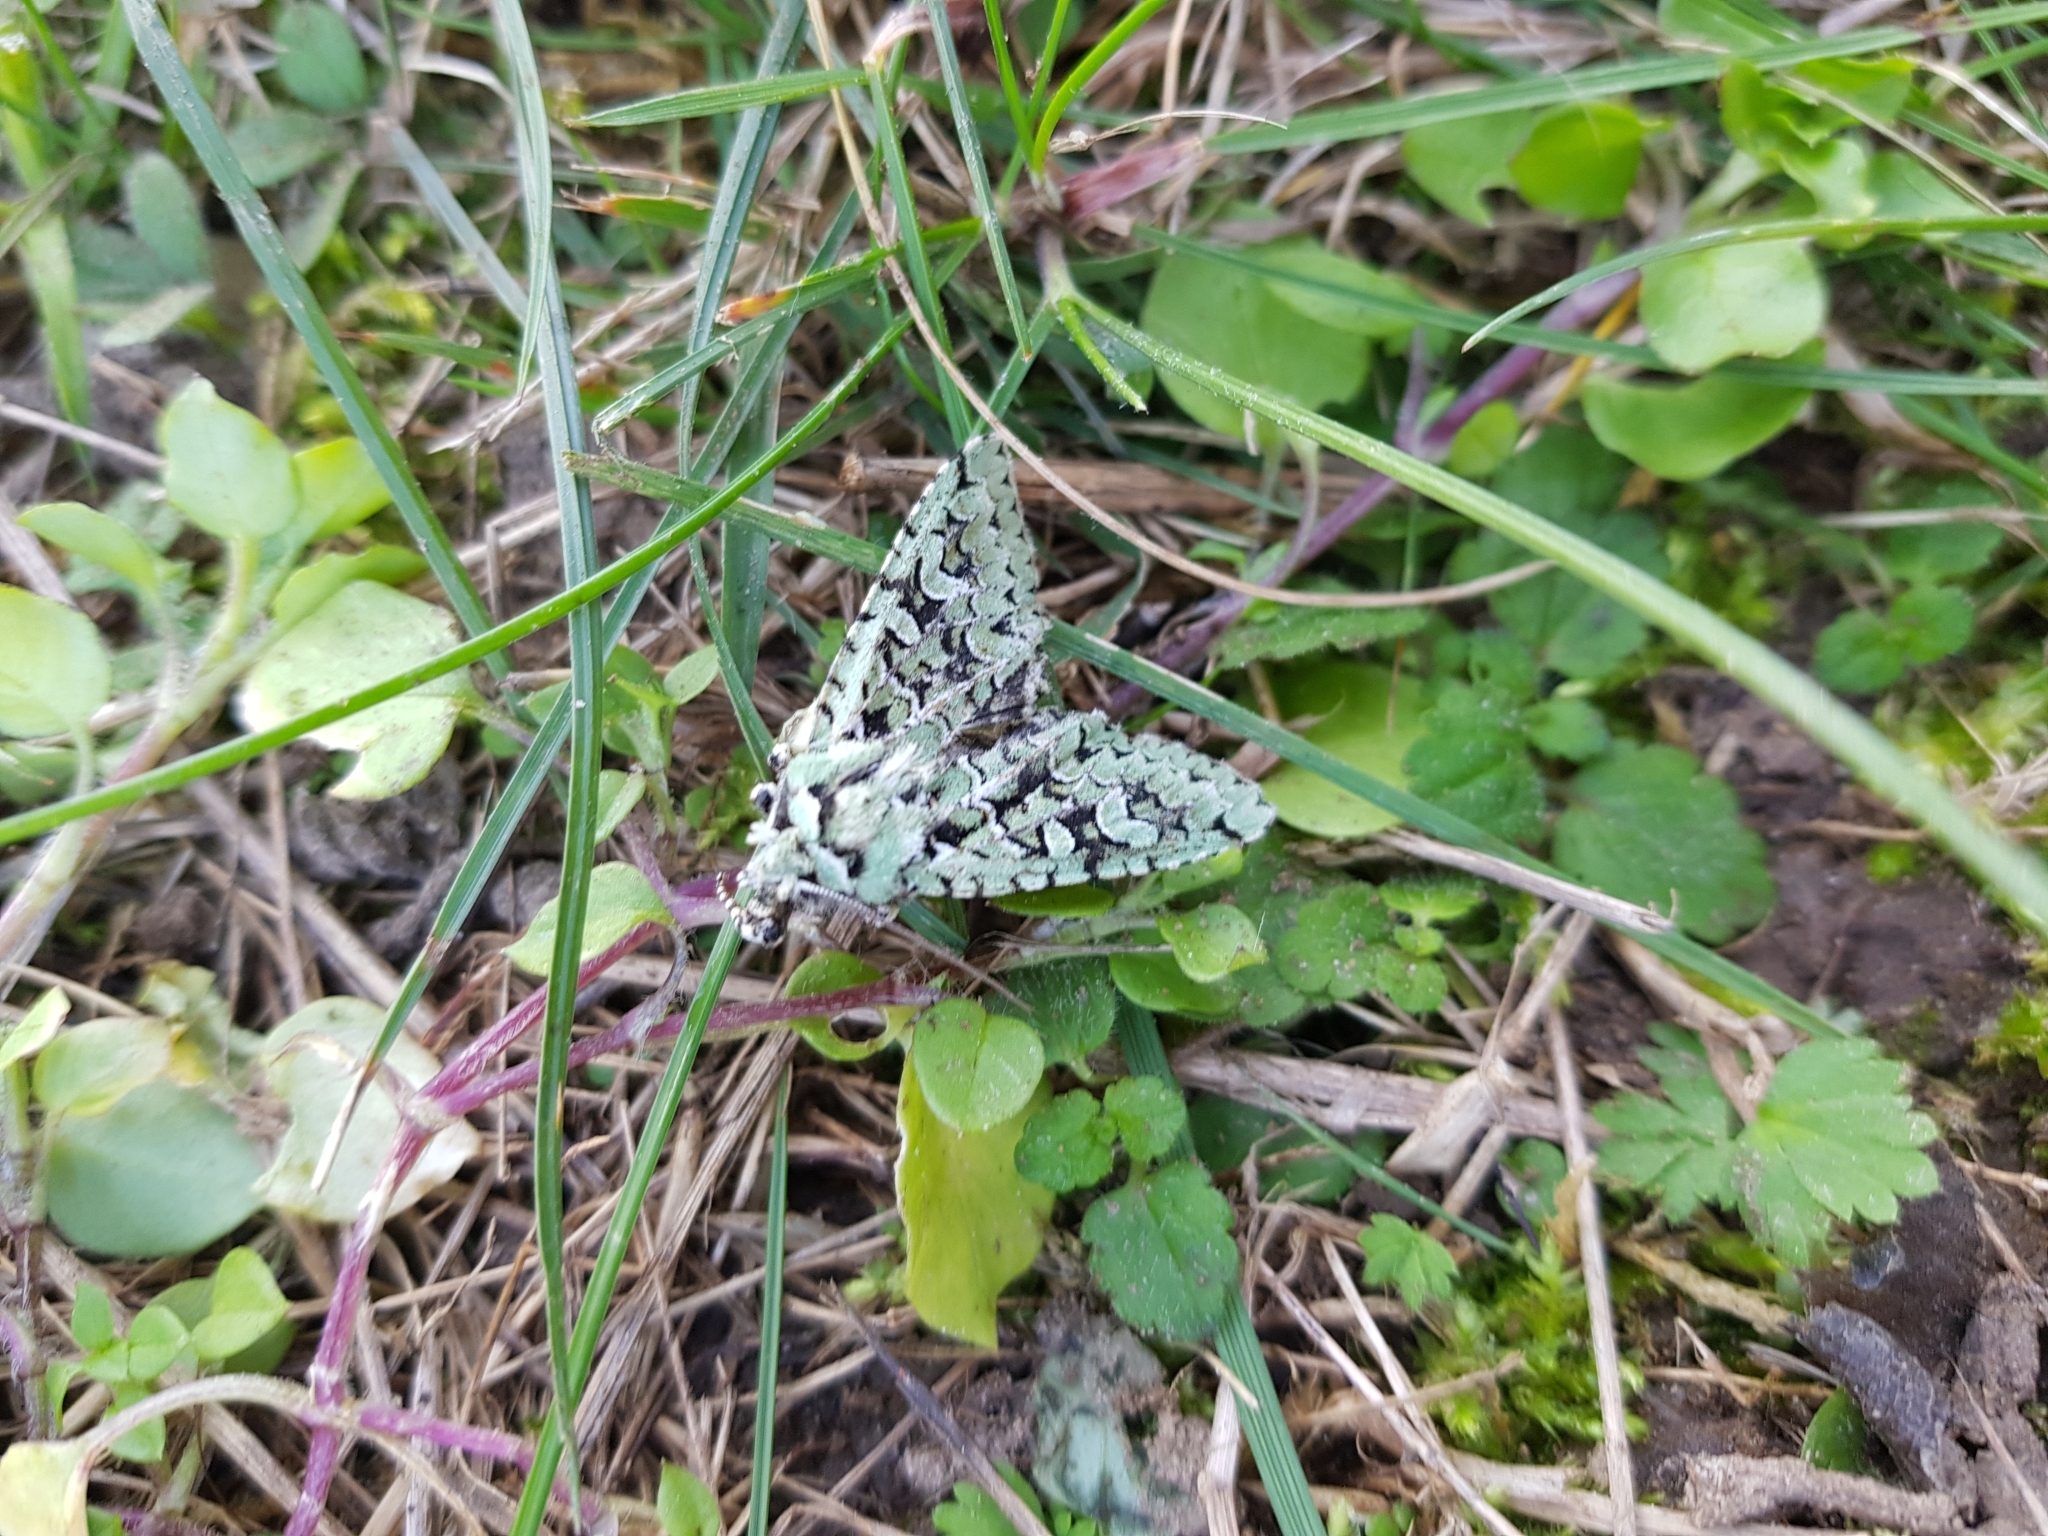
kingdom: Animalia
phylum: Arthropoda
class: Insecta
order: Lepidoptera
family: Noctuidae
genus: Griposia
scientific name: Griposia aprilina
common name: Merveille du jour
